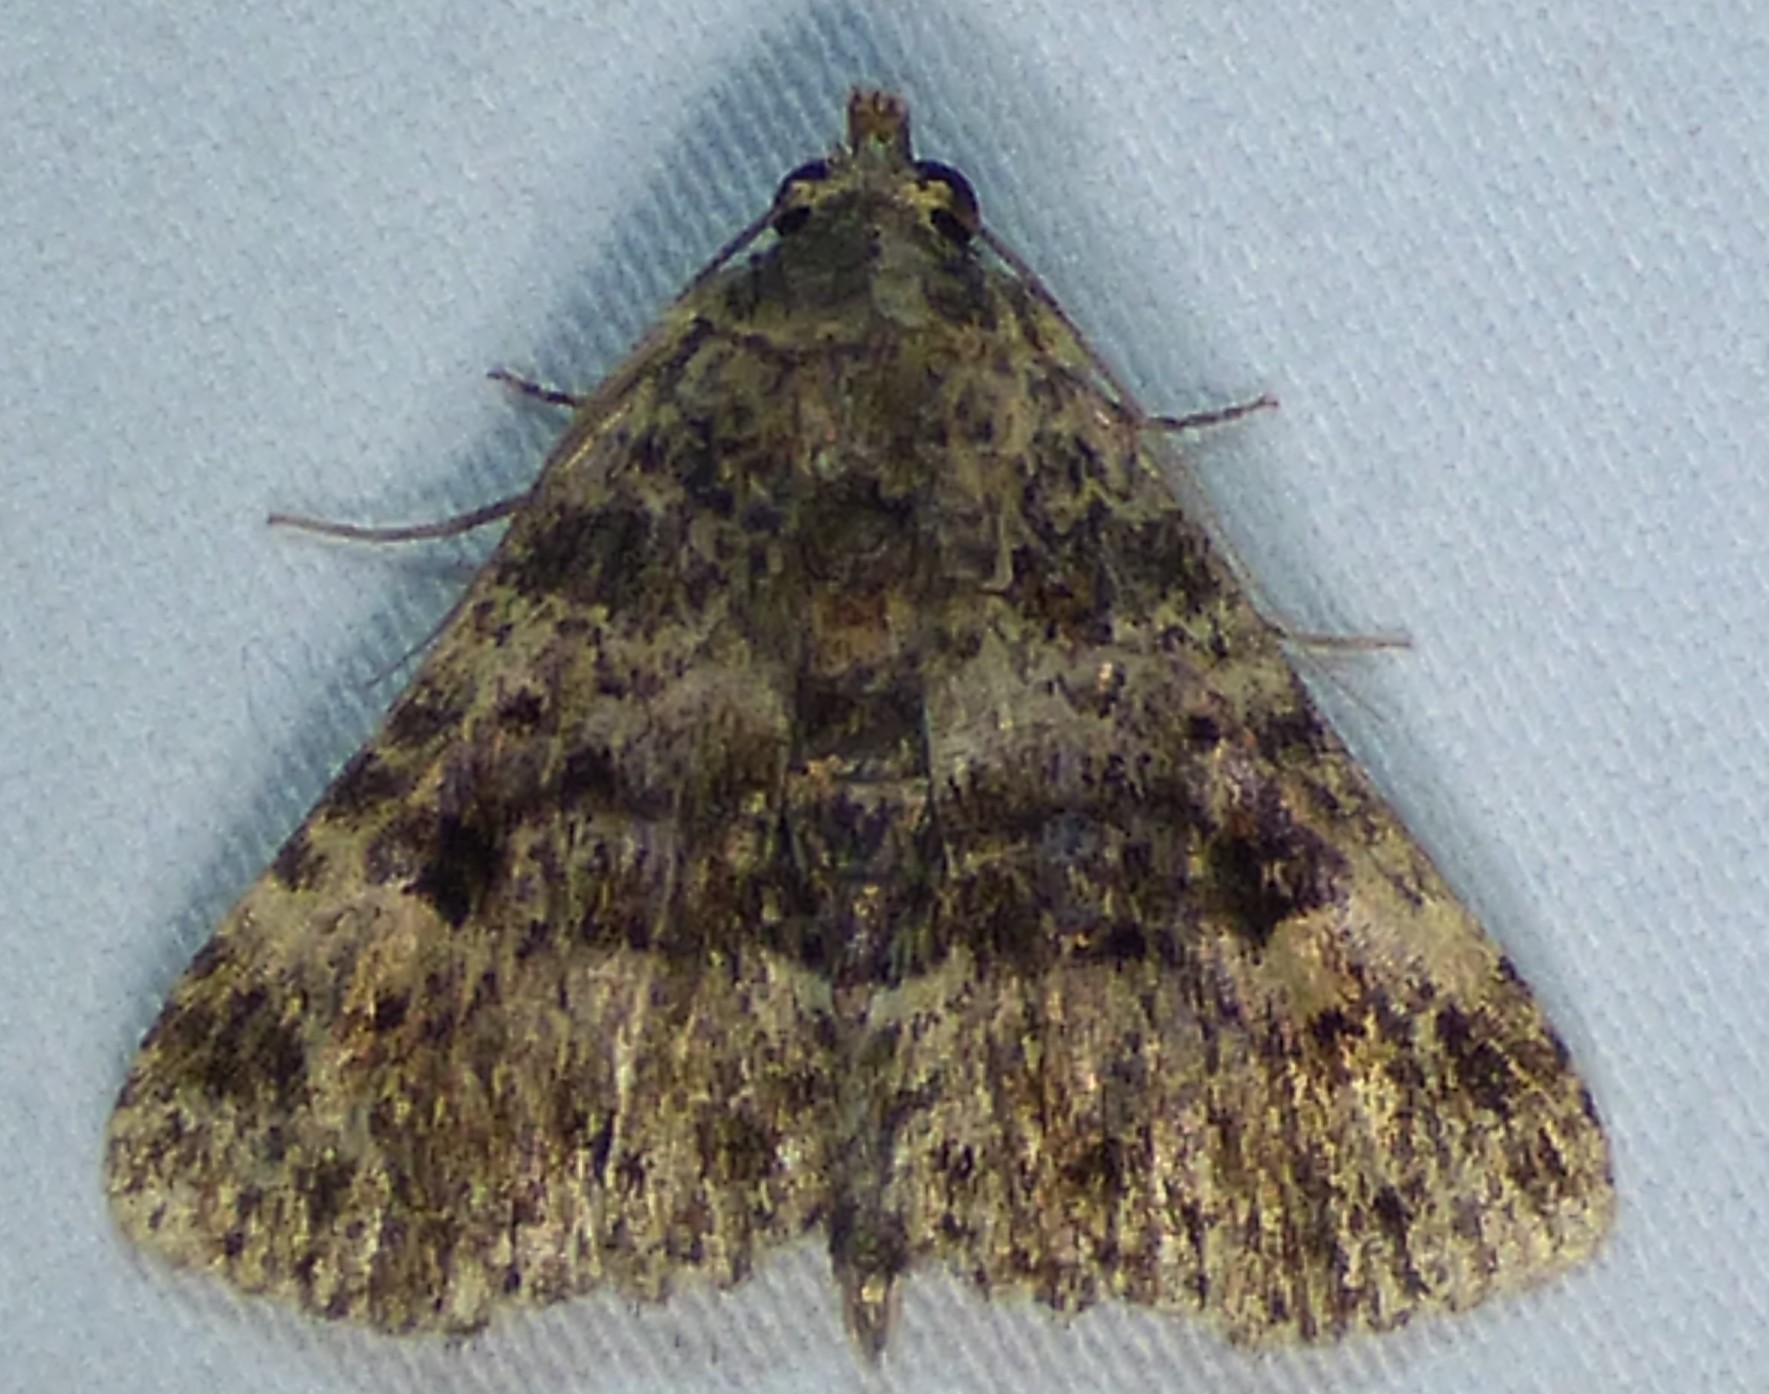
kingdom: Animalia
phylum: Arthropoda
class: Insecta
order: Lepidoptera
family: Erebidae
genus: Metalectra
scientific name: Metalectra discalis
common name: Common fungus moth
